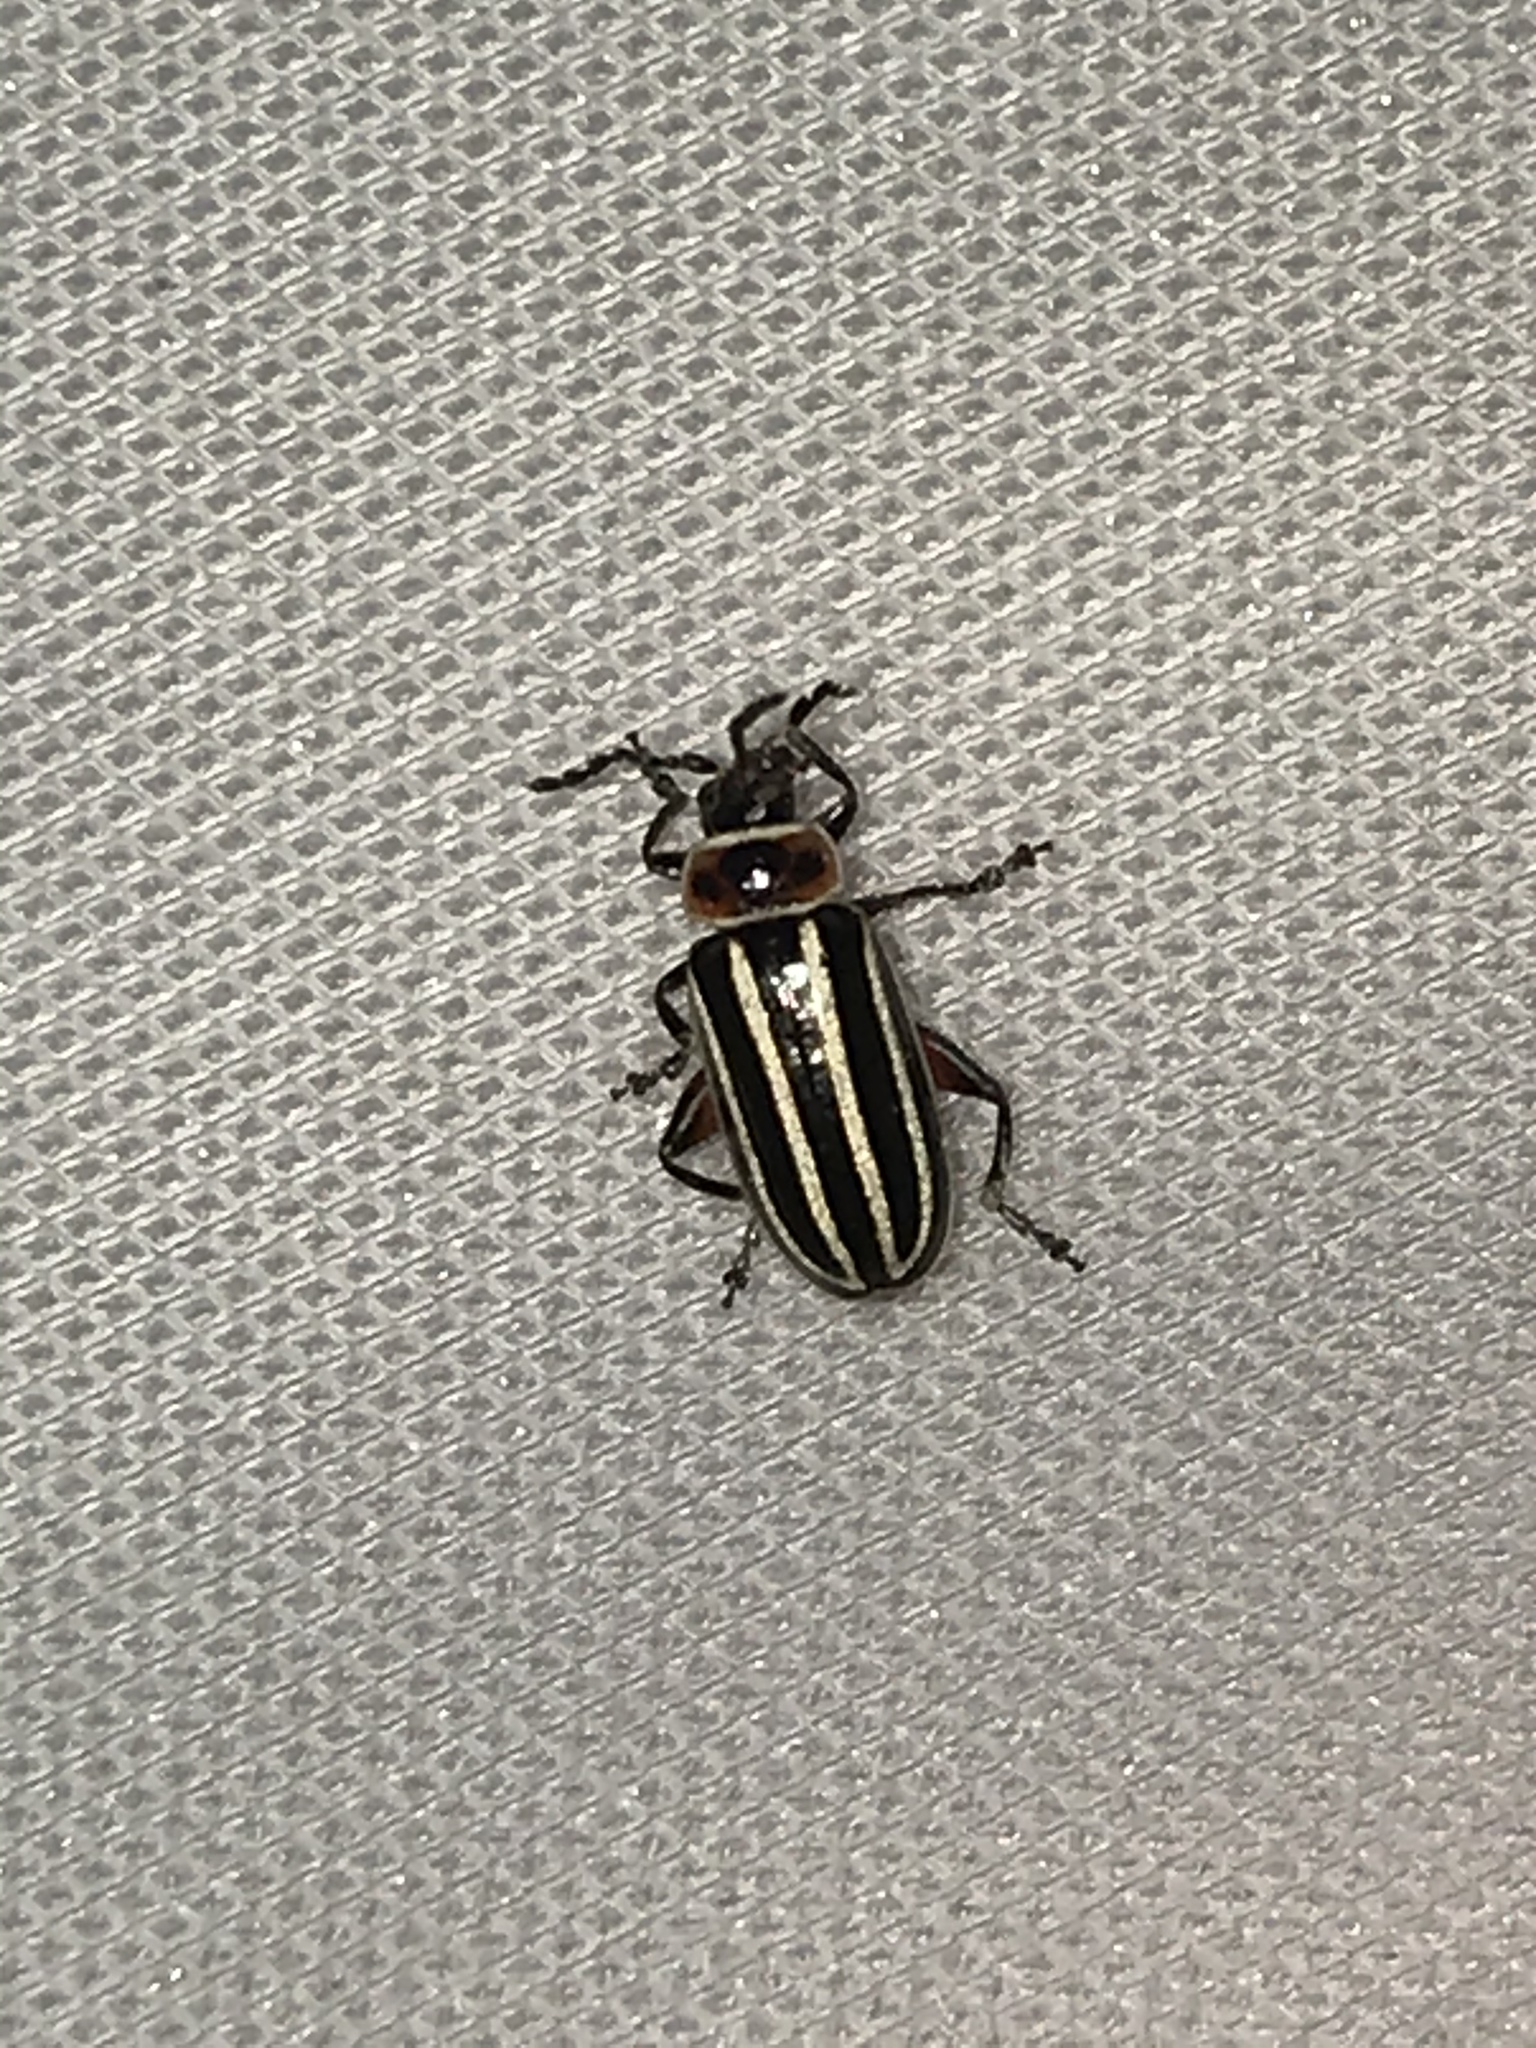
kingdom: Animalia
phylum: Arthropoda
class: Insecta
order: Coleoptera
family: Chrysomelidae
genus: Disonycha
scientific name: Disonycha procera
